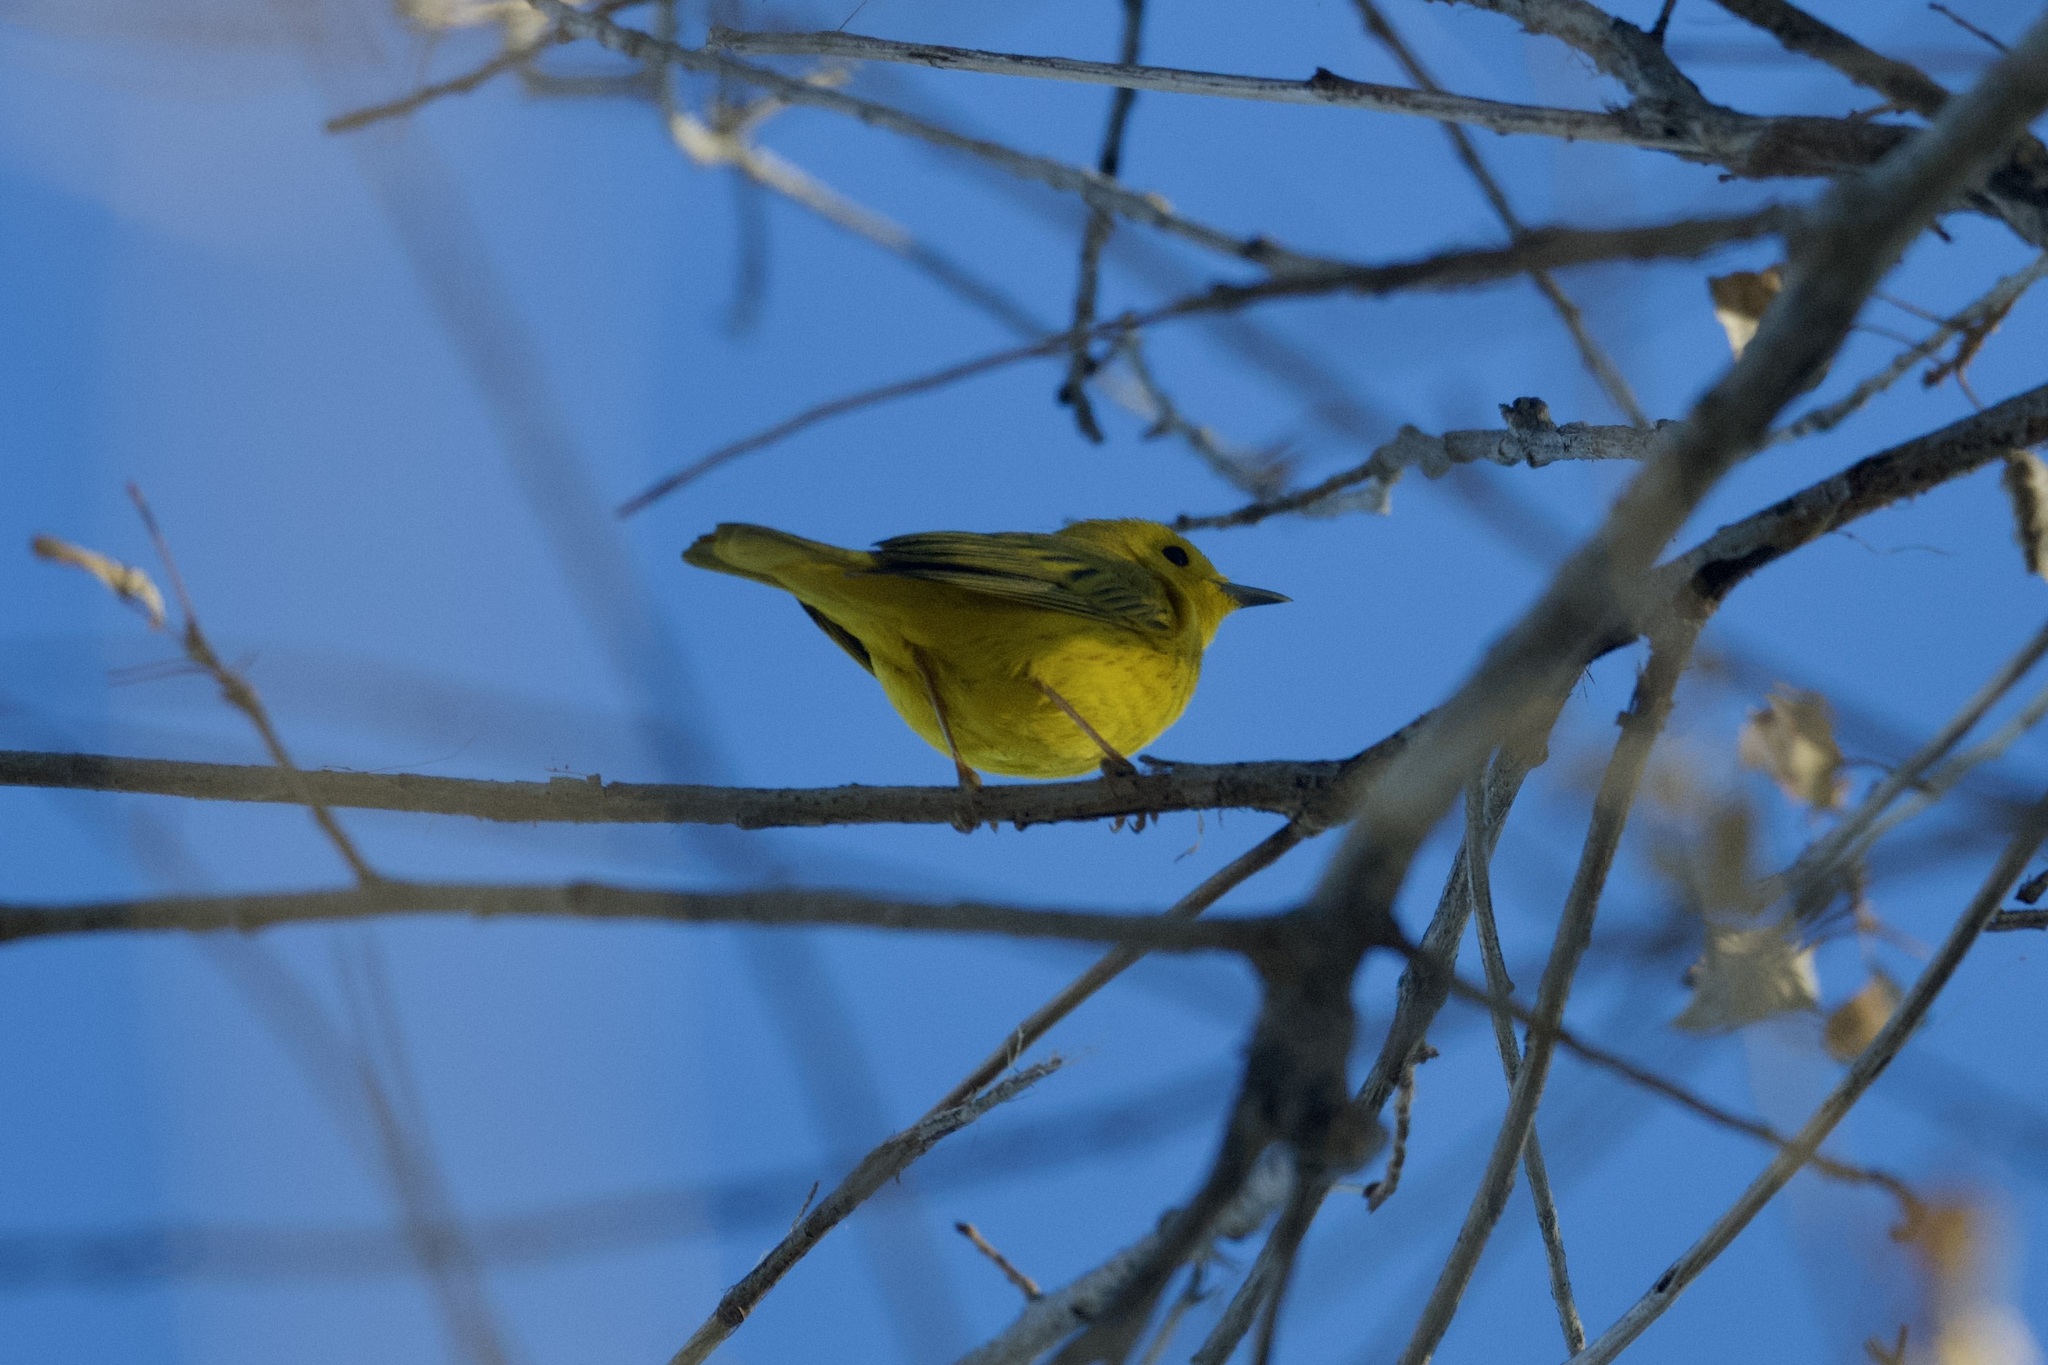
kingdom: Animalia
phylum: Chordata
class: Aves
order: Passeriformes
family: Parulidae
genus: Setophaga
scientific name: Setophaga petechia
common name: Yellow warbler
